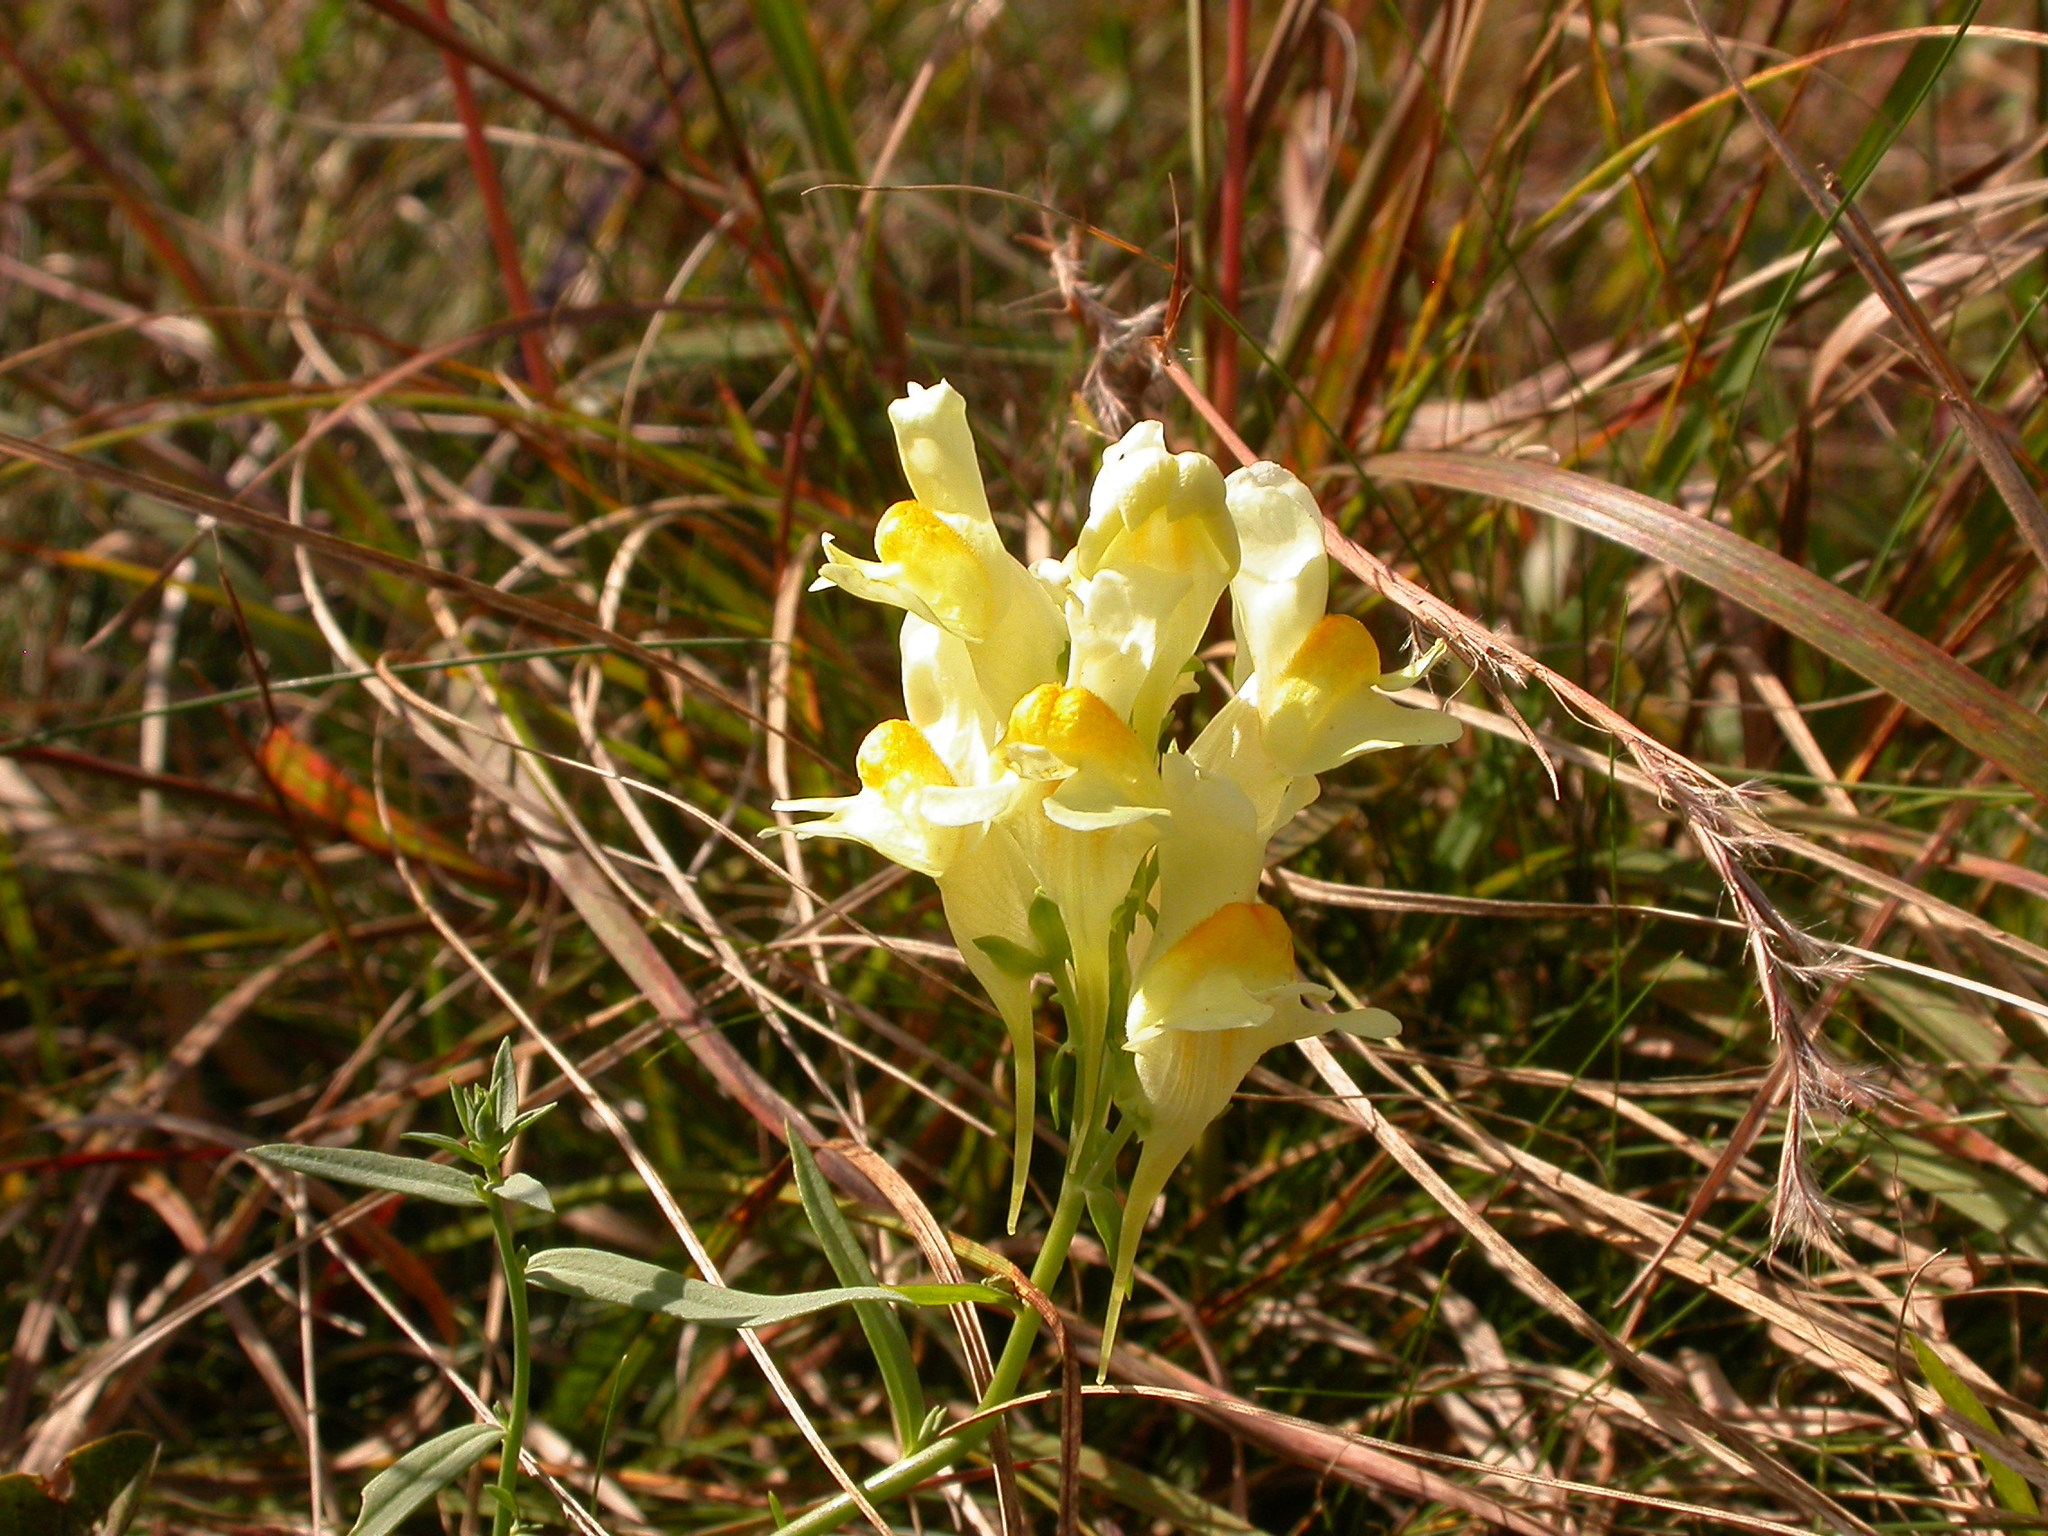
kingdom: Plantae
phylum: Tracheophyta
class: Magnoliopsida
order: Lamiales
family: Plantaginaceae
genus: Linaria
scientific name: Linaria vulgaris
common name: Butter and eggs
